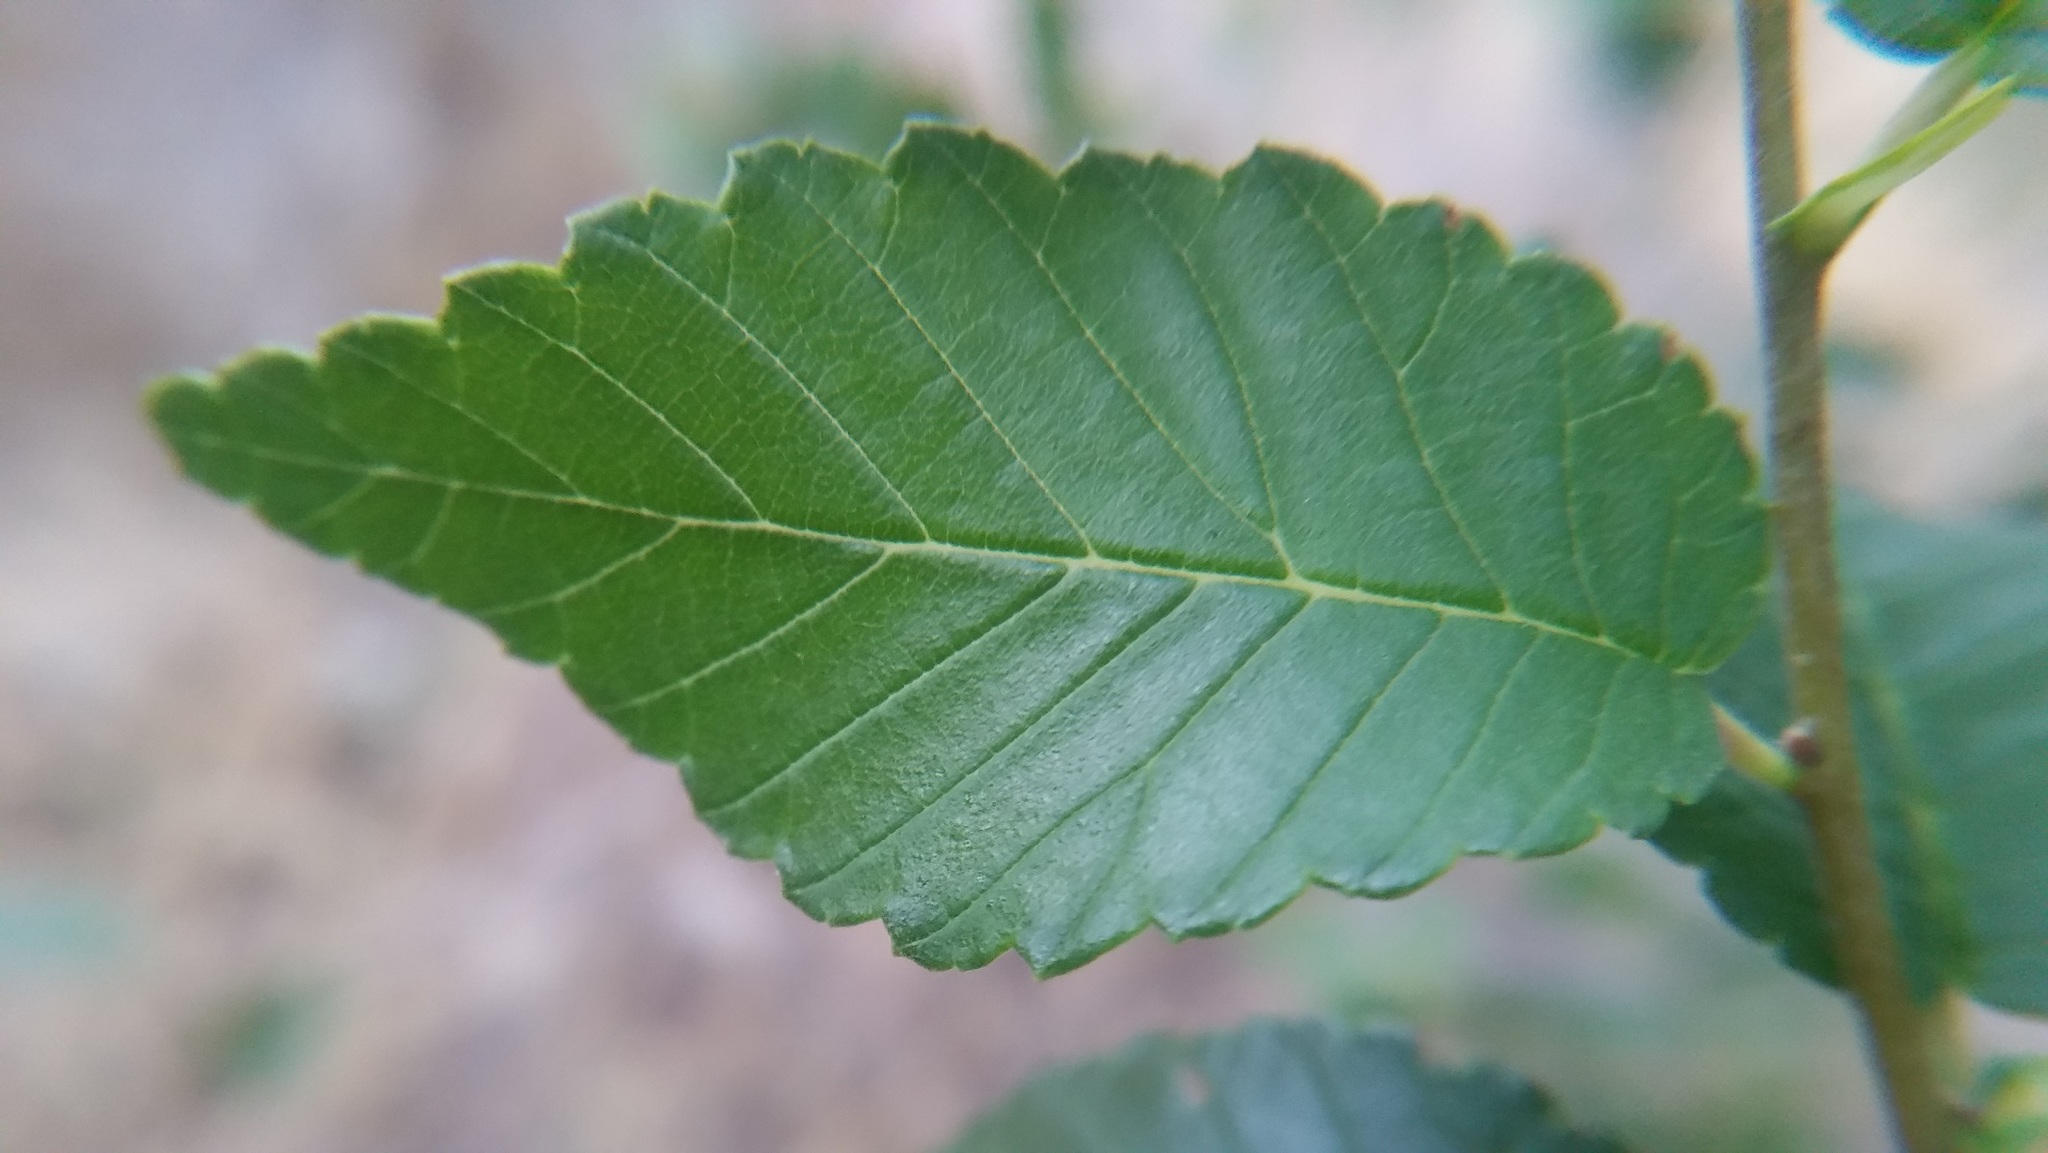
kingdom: Plantae
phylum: Tracheophyta
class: Magnoliopsida
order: Rosales
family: Ulmaceae
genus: Ulmus
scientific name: Ulmus pumila
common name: Siberian elm
